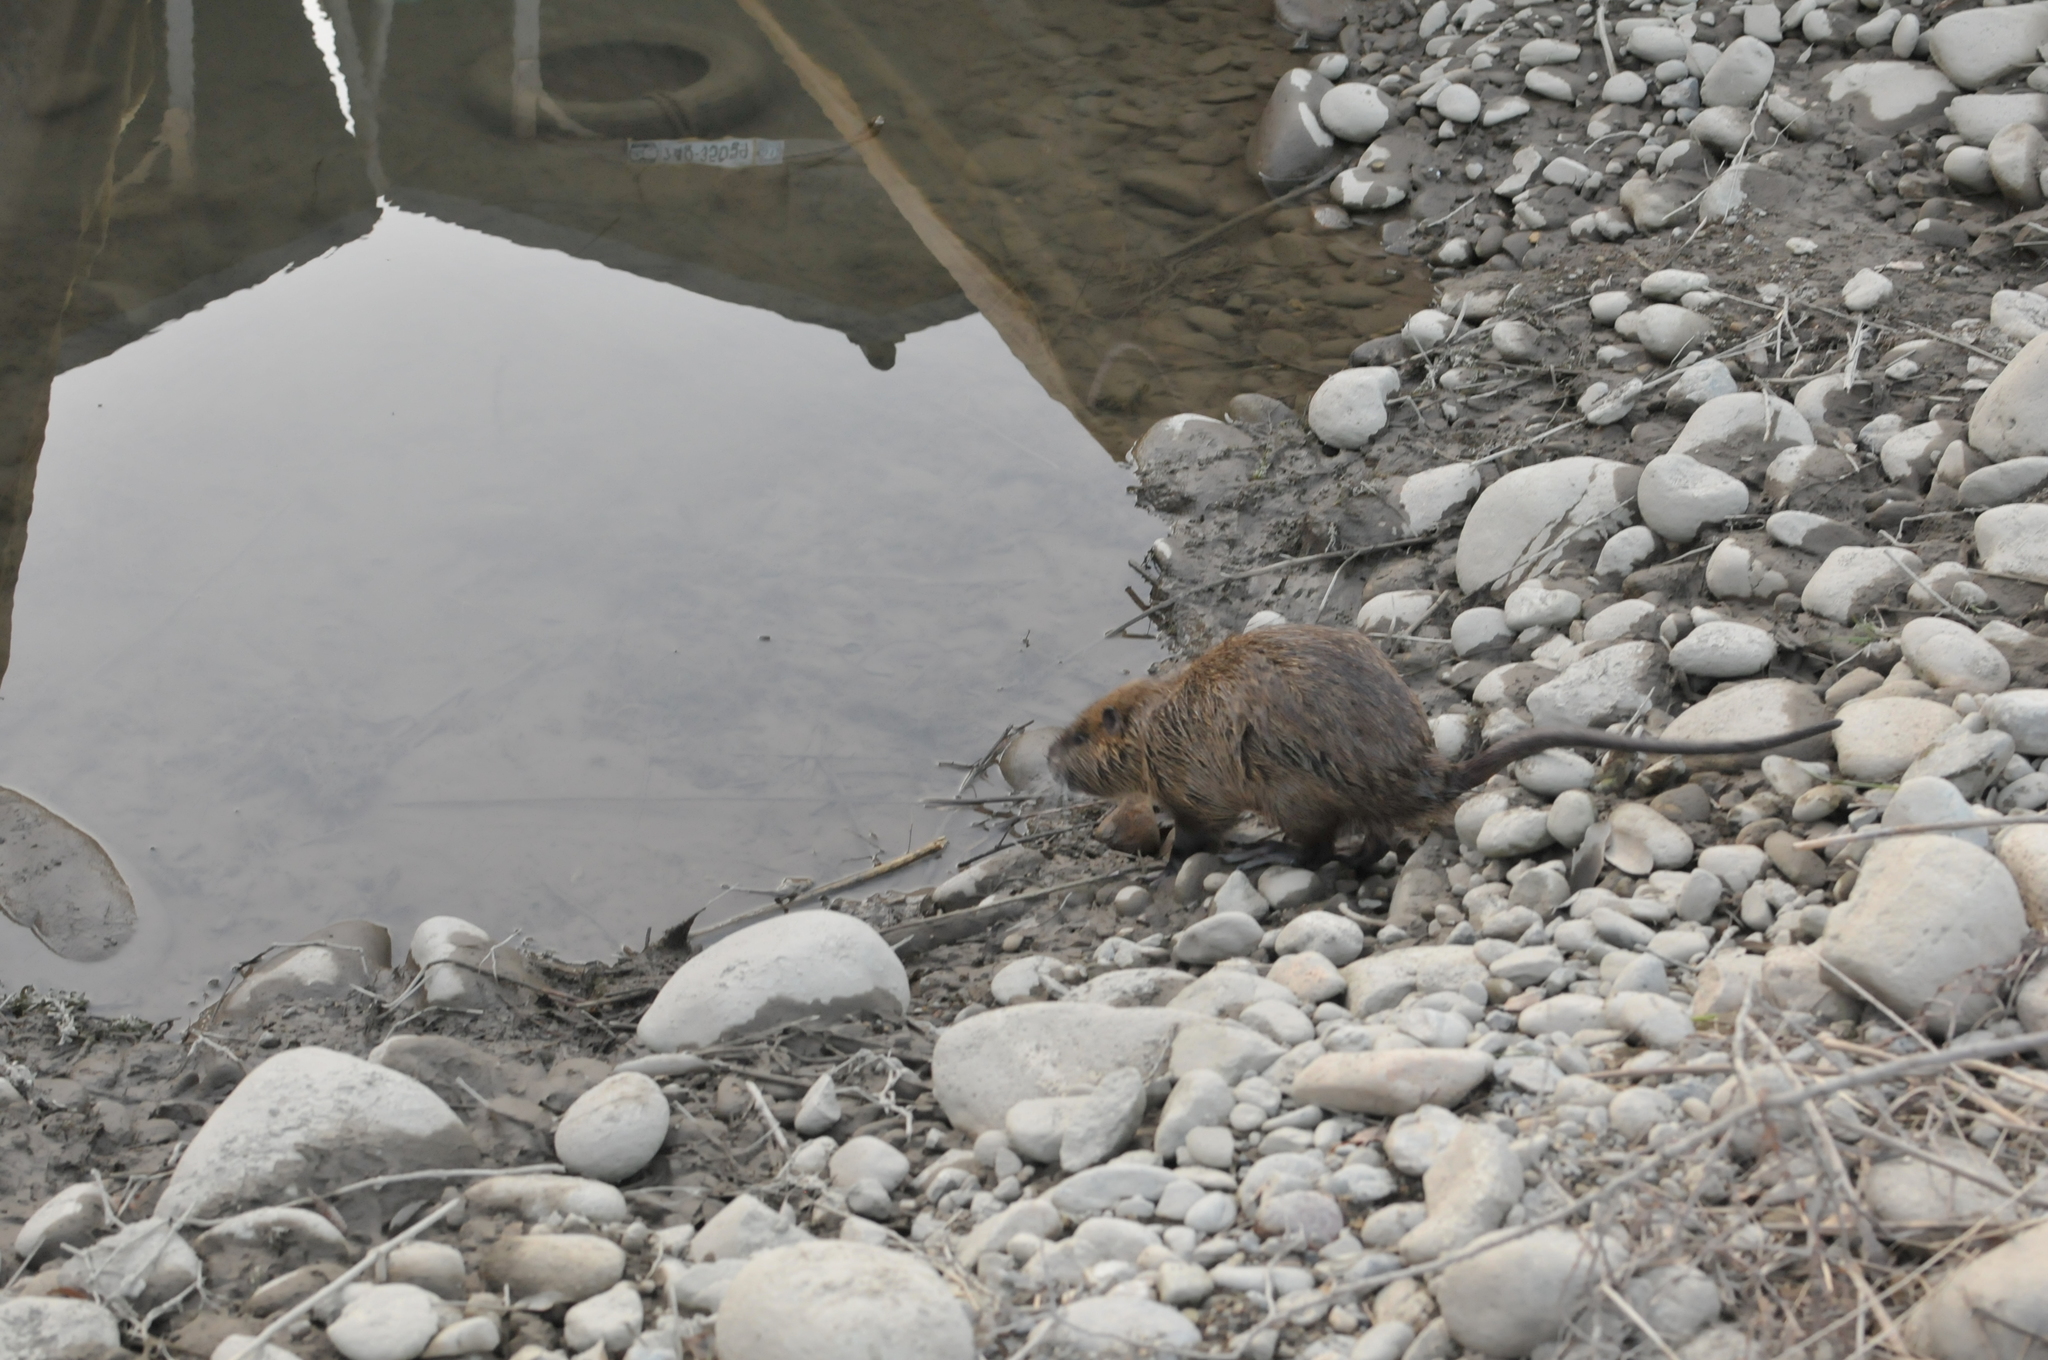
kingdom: Animalia
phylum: Chordata
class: Mammalia
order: Rodentia
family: Myocastoridae
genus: Myocastor
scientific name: Myocastor coypus
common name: Coypu
